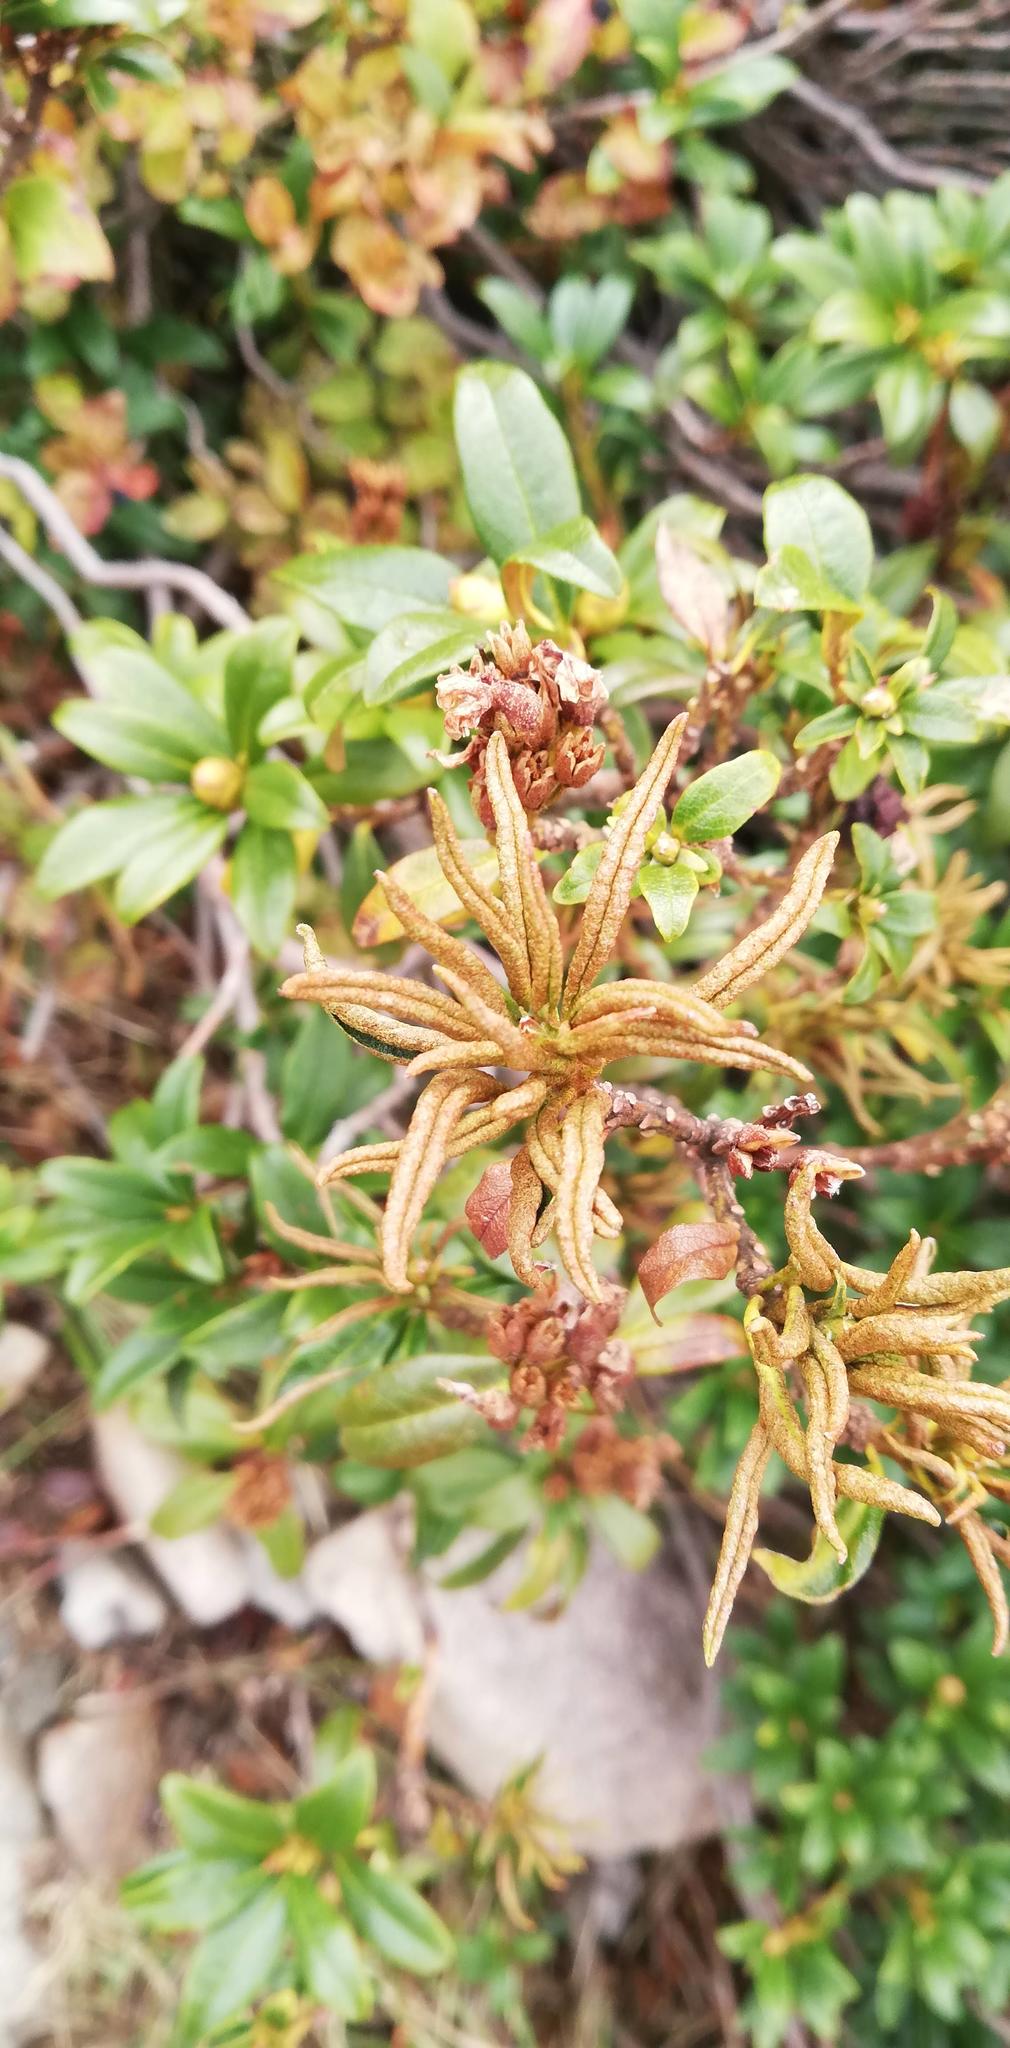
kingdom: Plantae
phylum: Tracheophyta
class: Magnoliopsida
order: Ericales
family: Ericaceae
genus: Rhododendron
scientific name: Rhododendron ferrugineum
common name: Alpenrose
